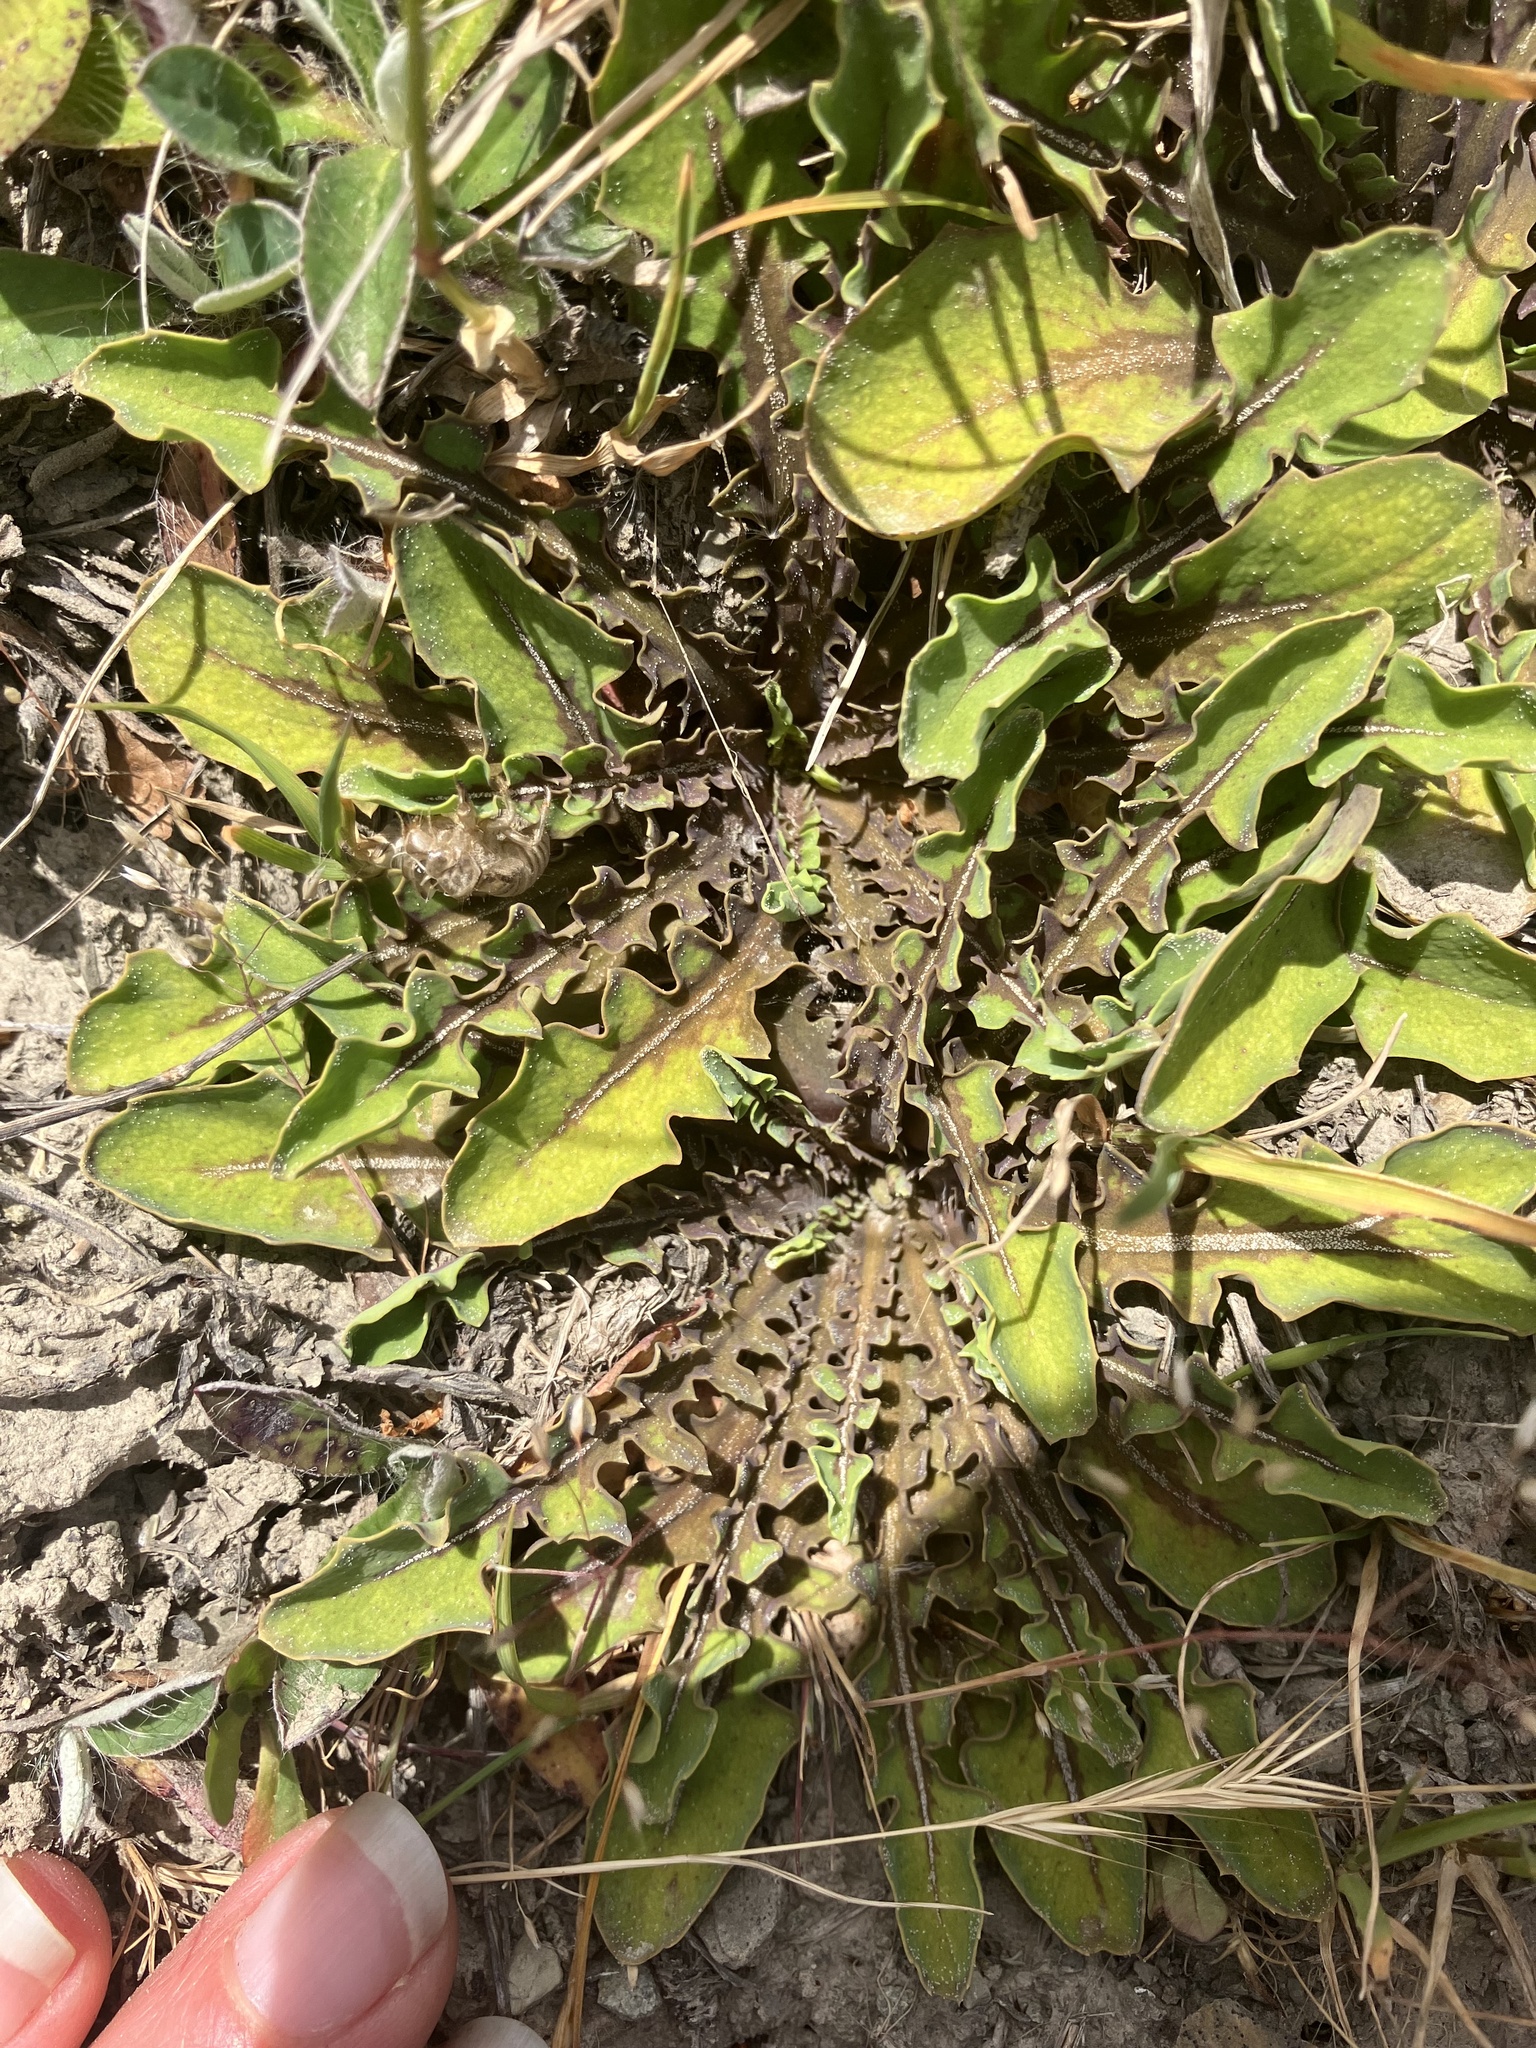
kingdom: Plantae
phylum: Tracheophyta
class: Magnoliopsida
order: Asterales
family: Asteraceae
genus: Sonchus
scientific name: Sonchus novae-zelandiae
